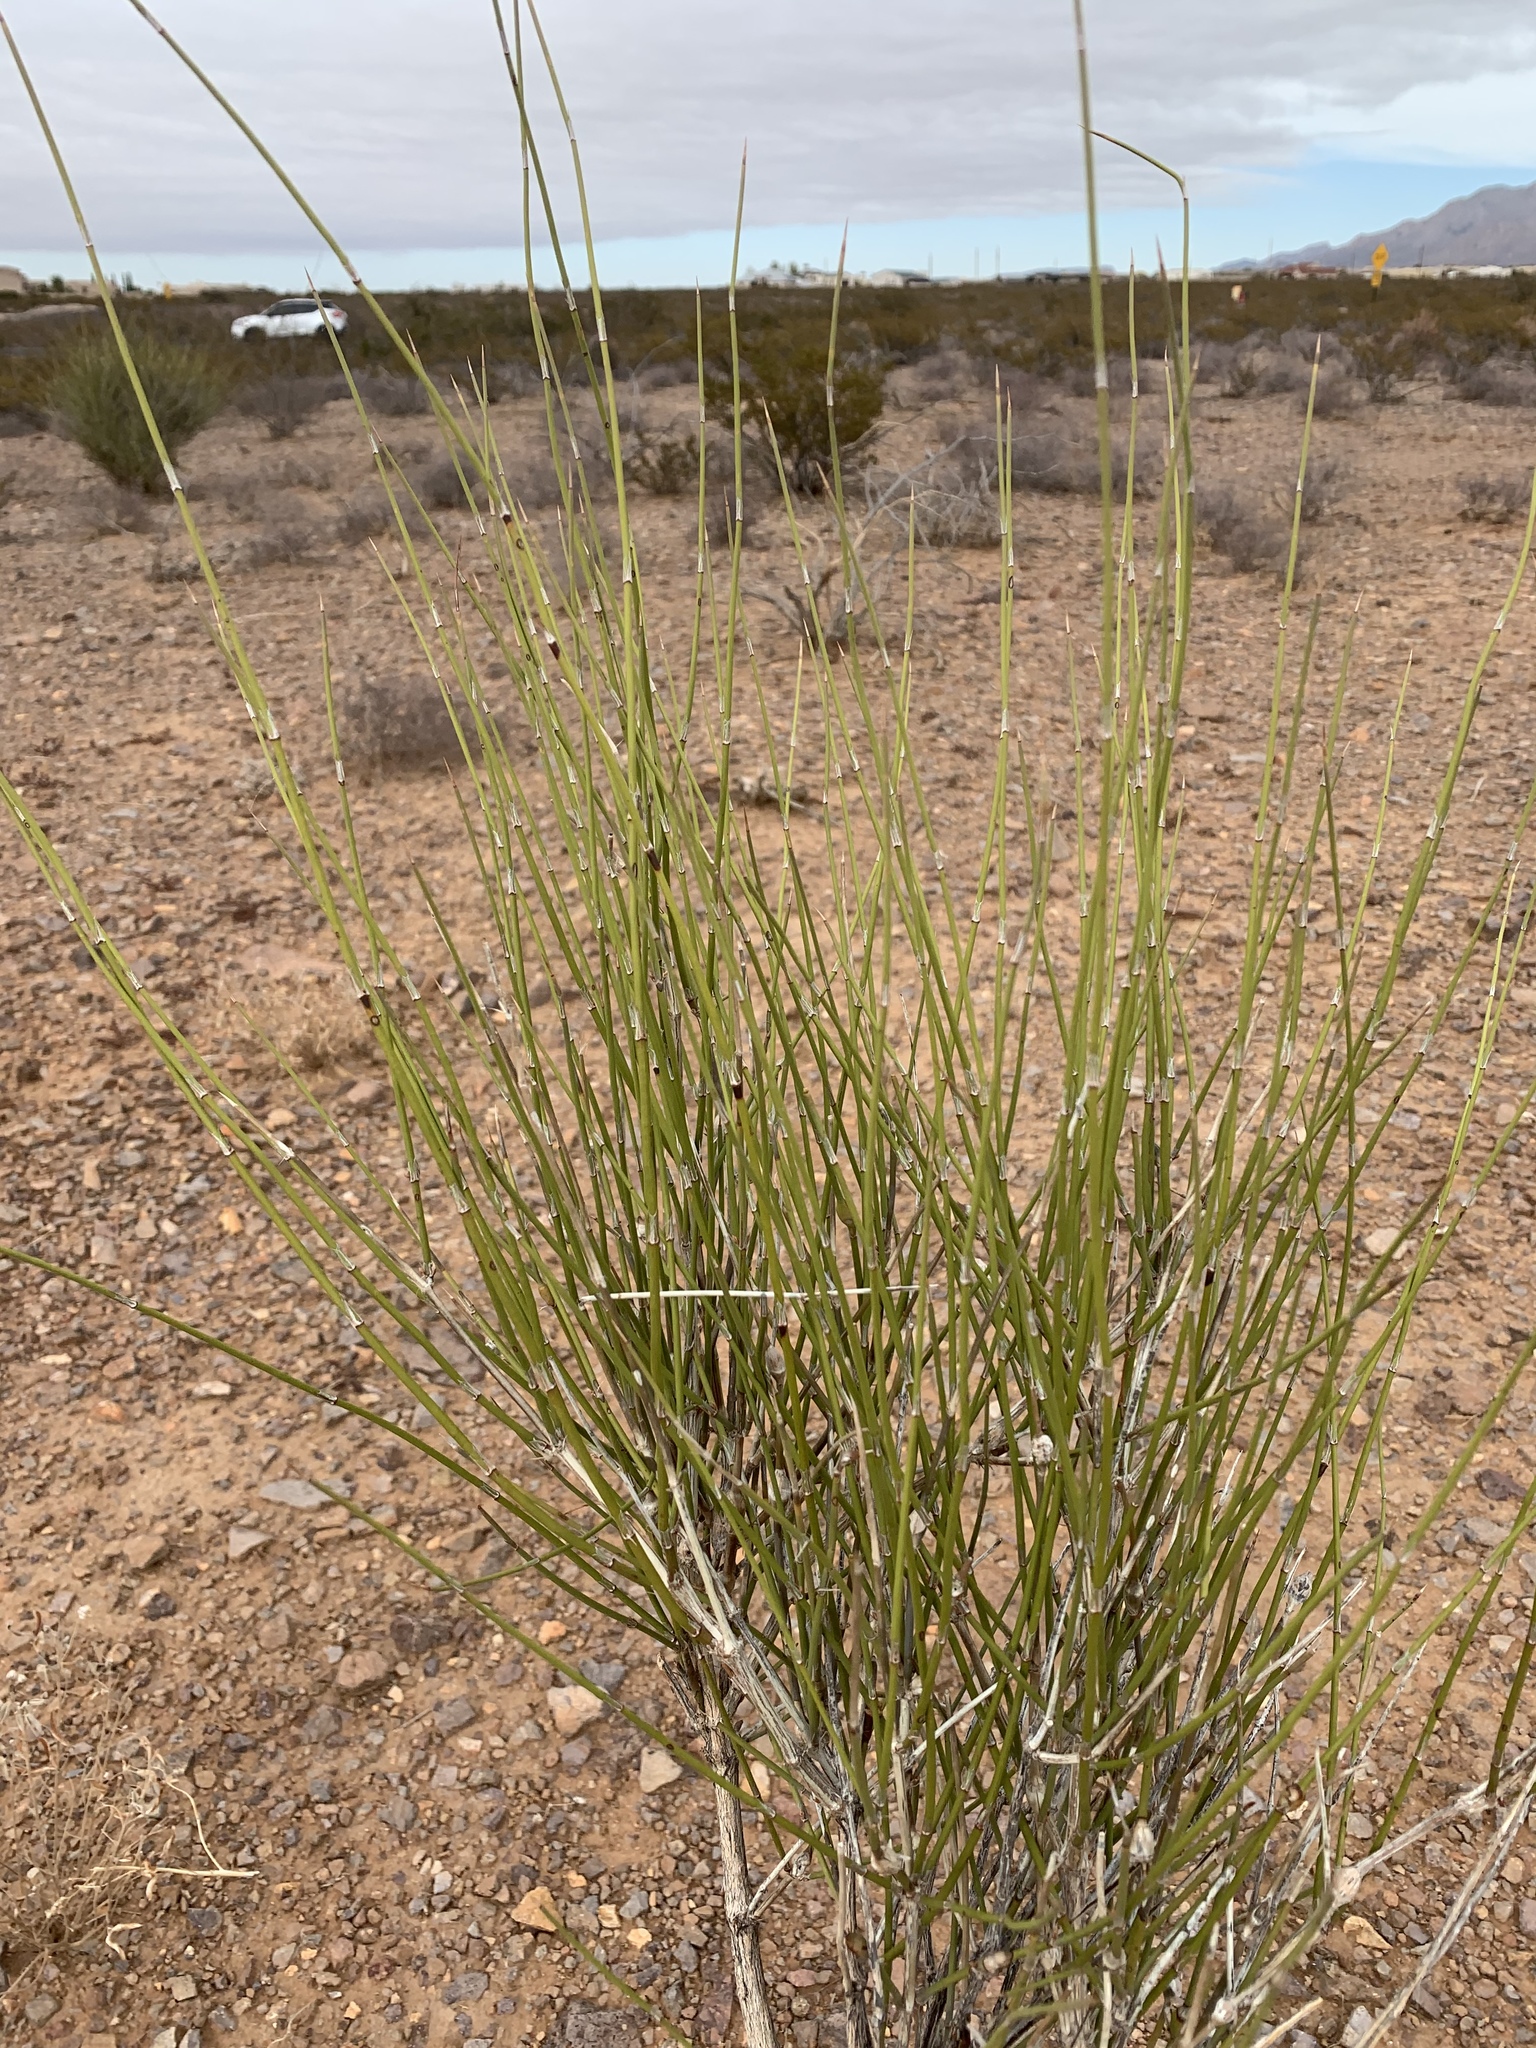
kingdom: Plantae
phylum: Tracheophyta
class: Gnetopsida
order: Ephedrales
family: Ephedraceae
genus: Ephedra
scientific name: Ephedra trifurca
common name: Mexican-tea
